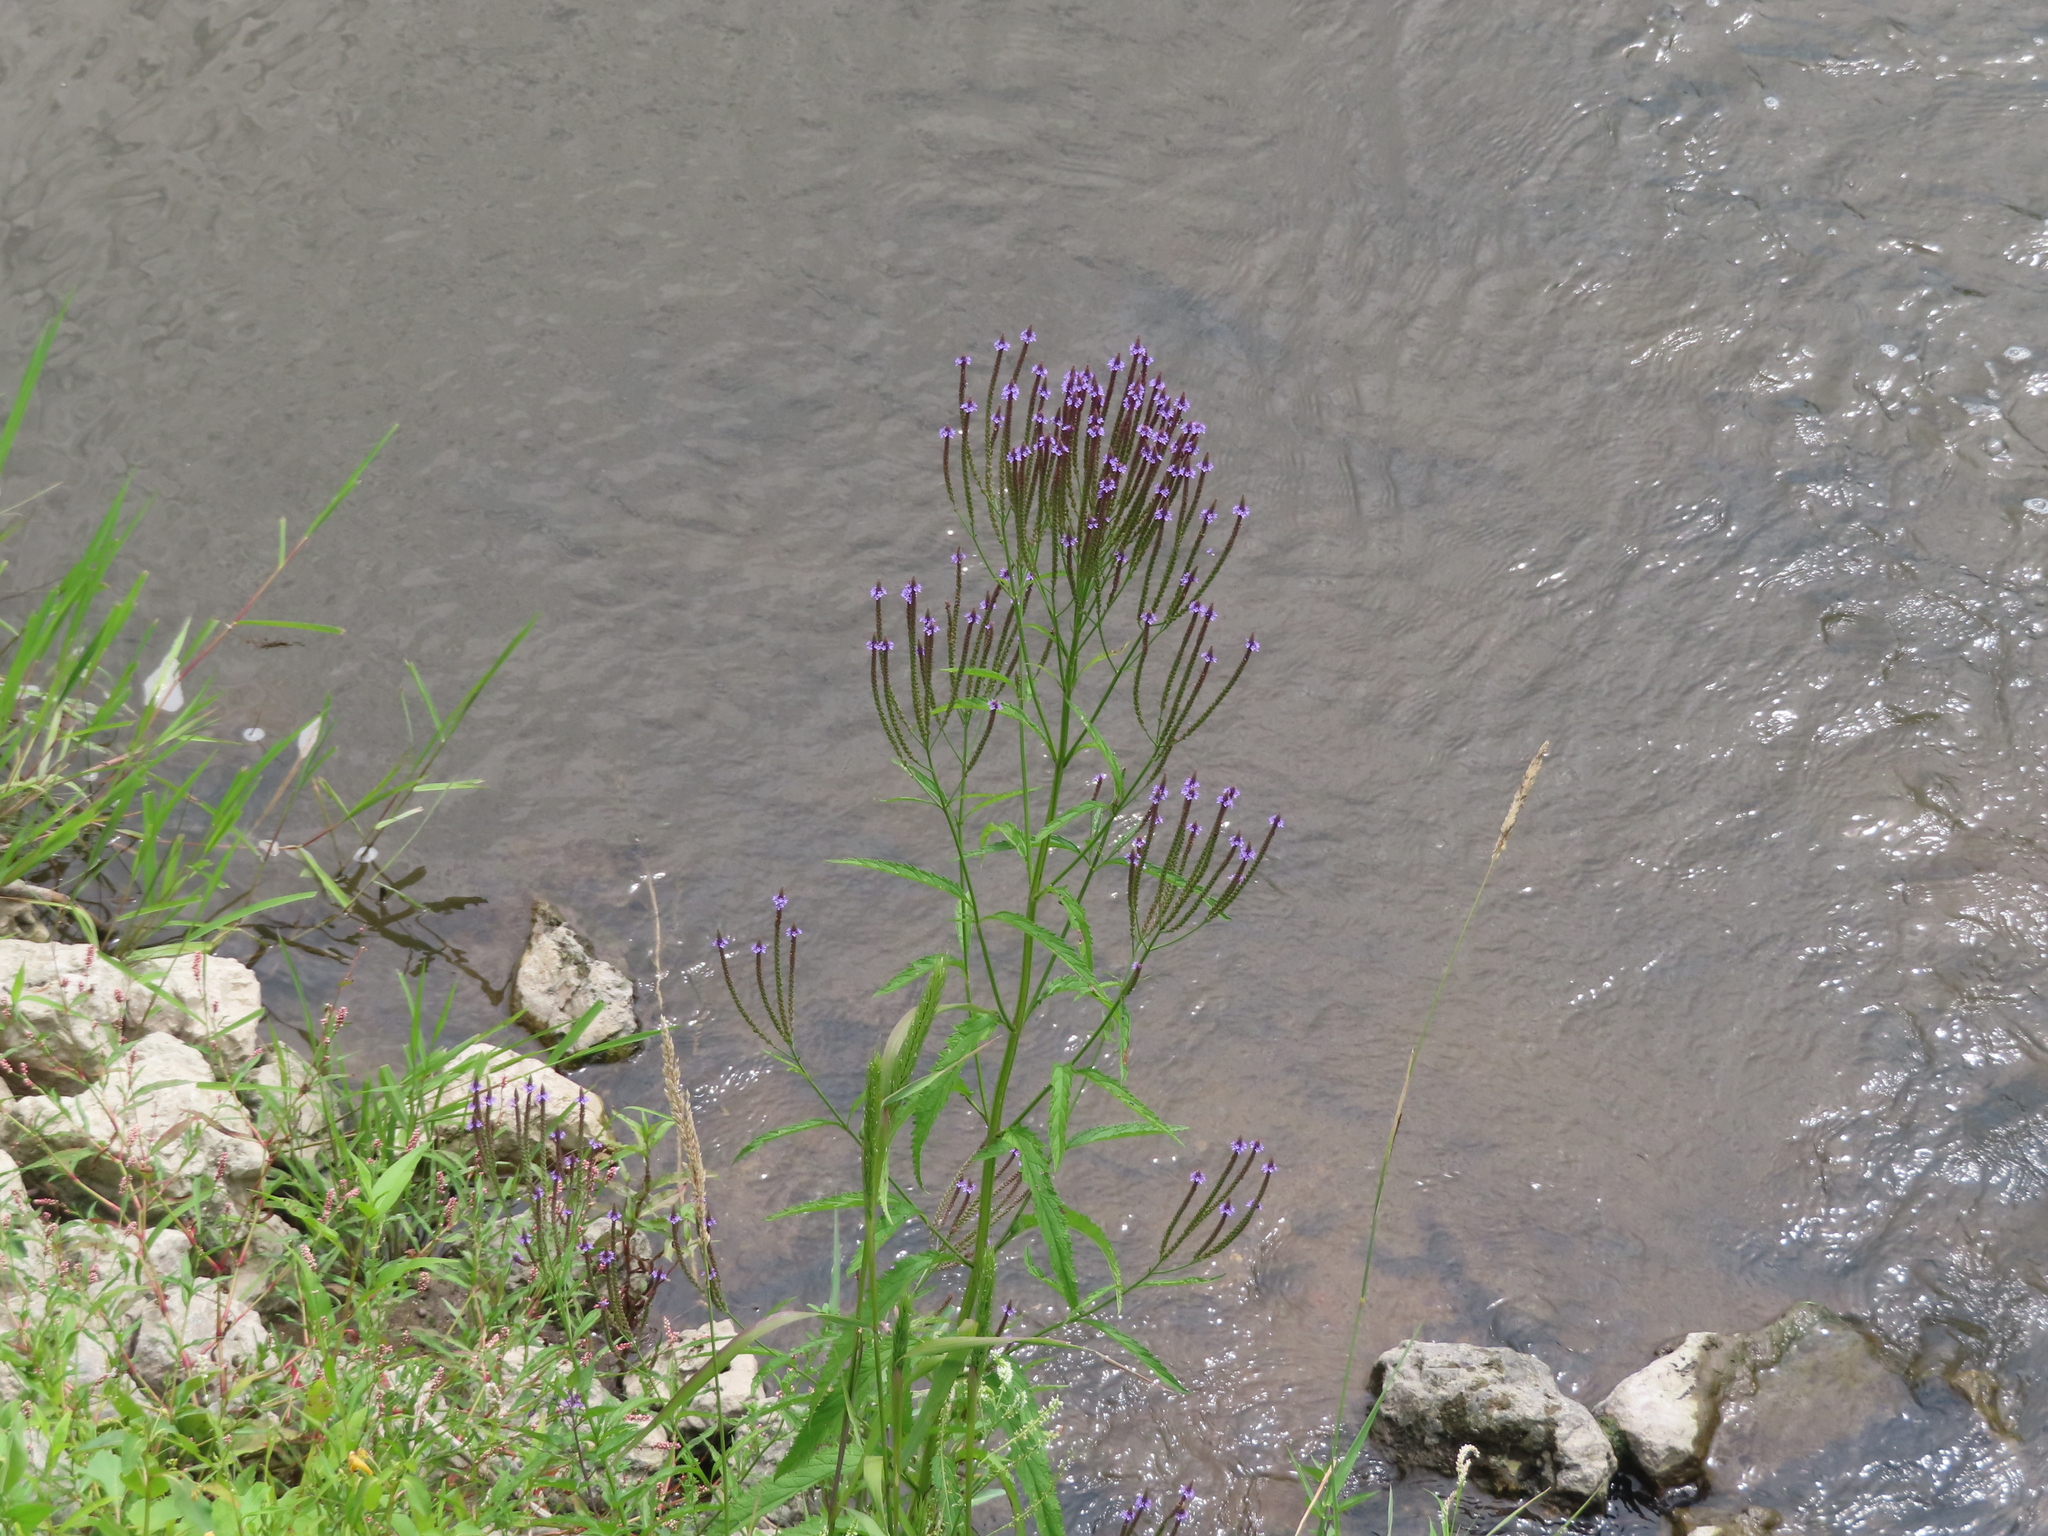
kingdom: Plantae
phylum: Tracheophyta
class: Magnoliopsida
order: Lamiales
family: Verbenaceae
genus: Verbena
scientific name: Verbena hastata
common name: American blue vervain
